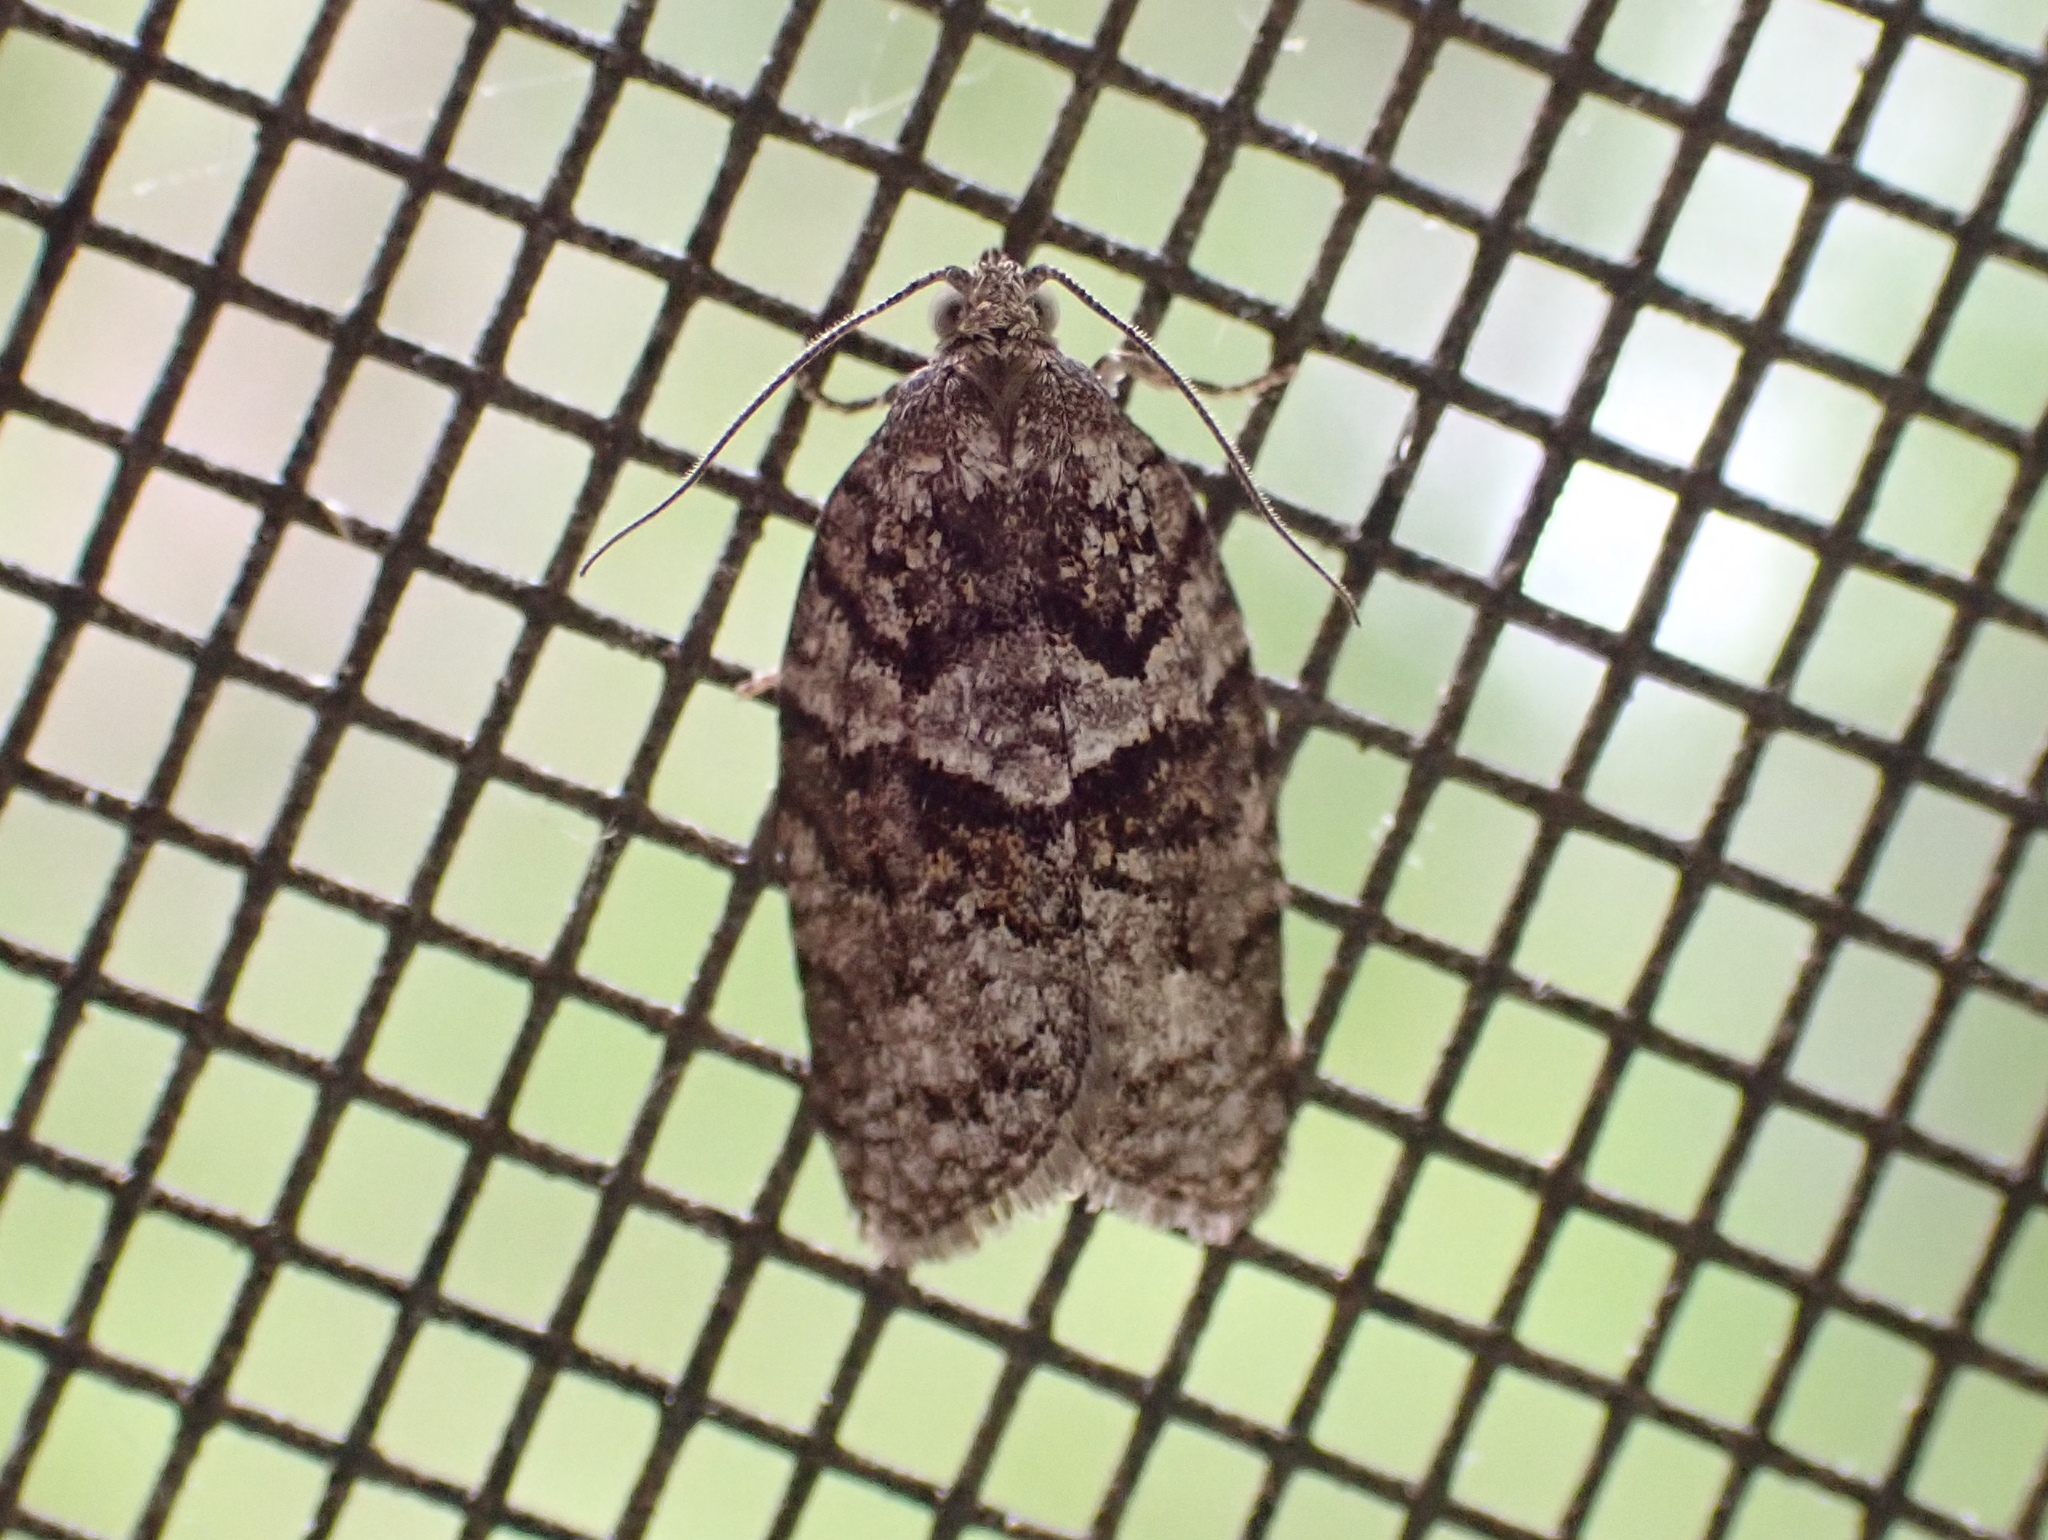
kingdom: Animalia
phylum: Arthropoda
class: Insecta
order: Lepidoptera
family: Tortricidae
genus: Syndemis
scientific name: Syndemis afflictana
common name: Gray leafroller moth
